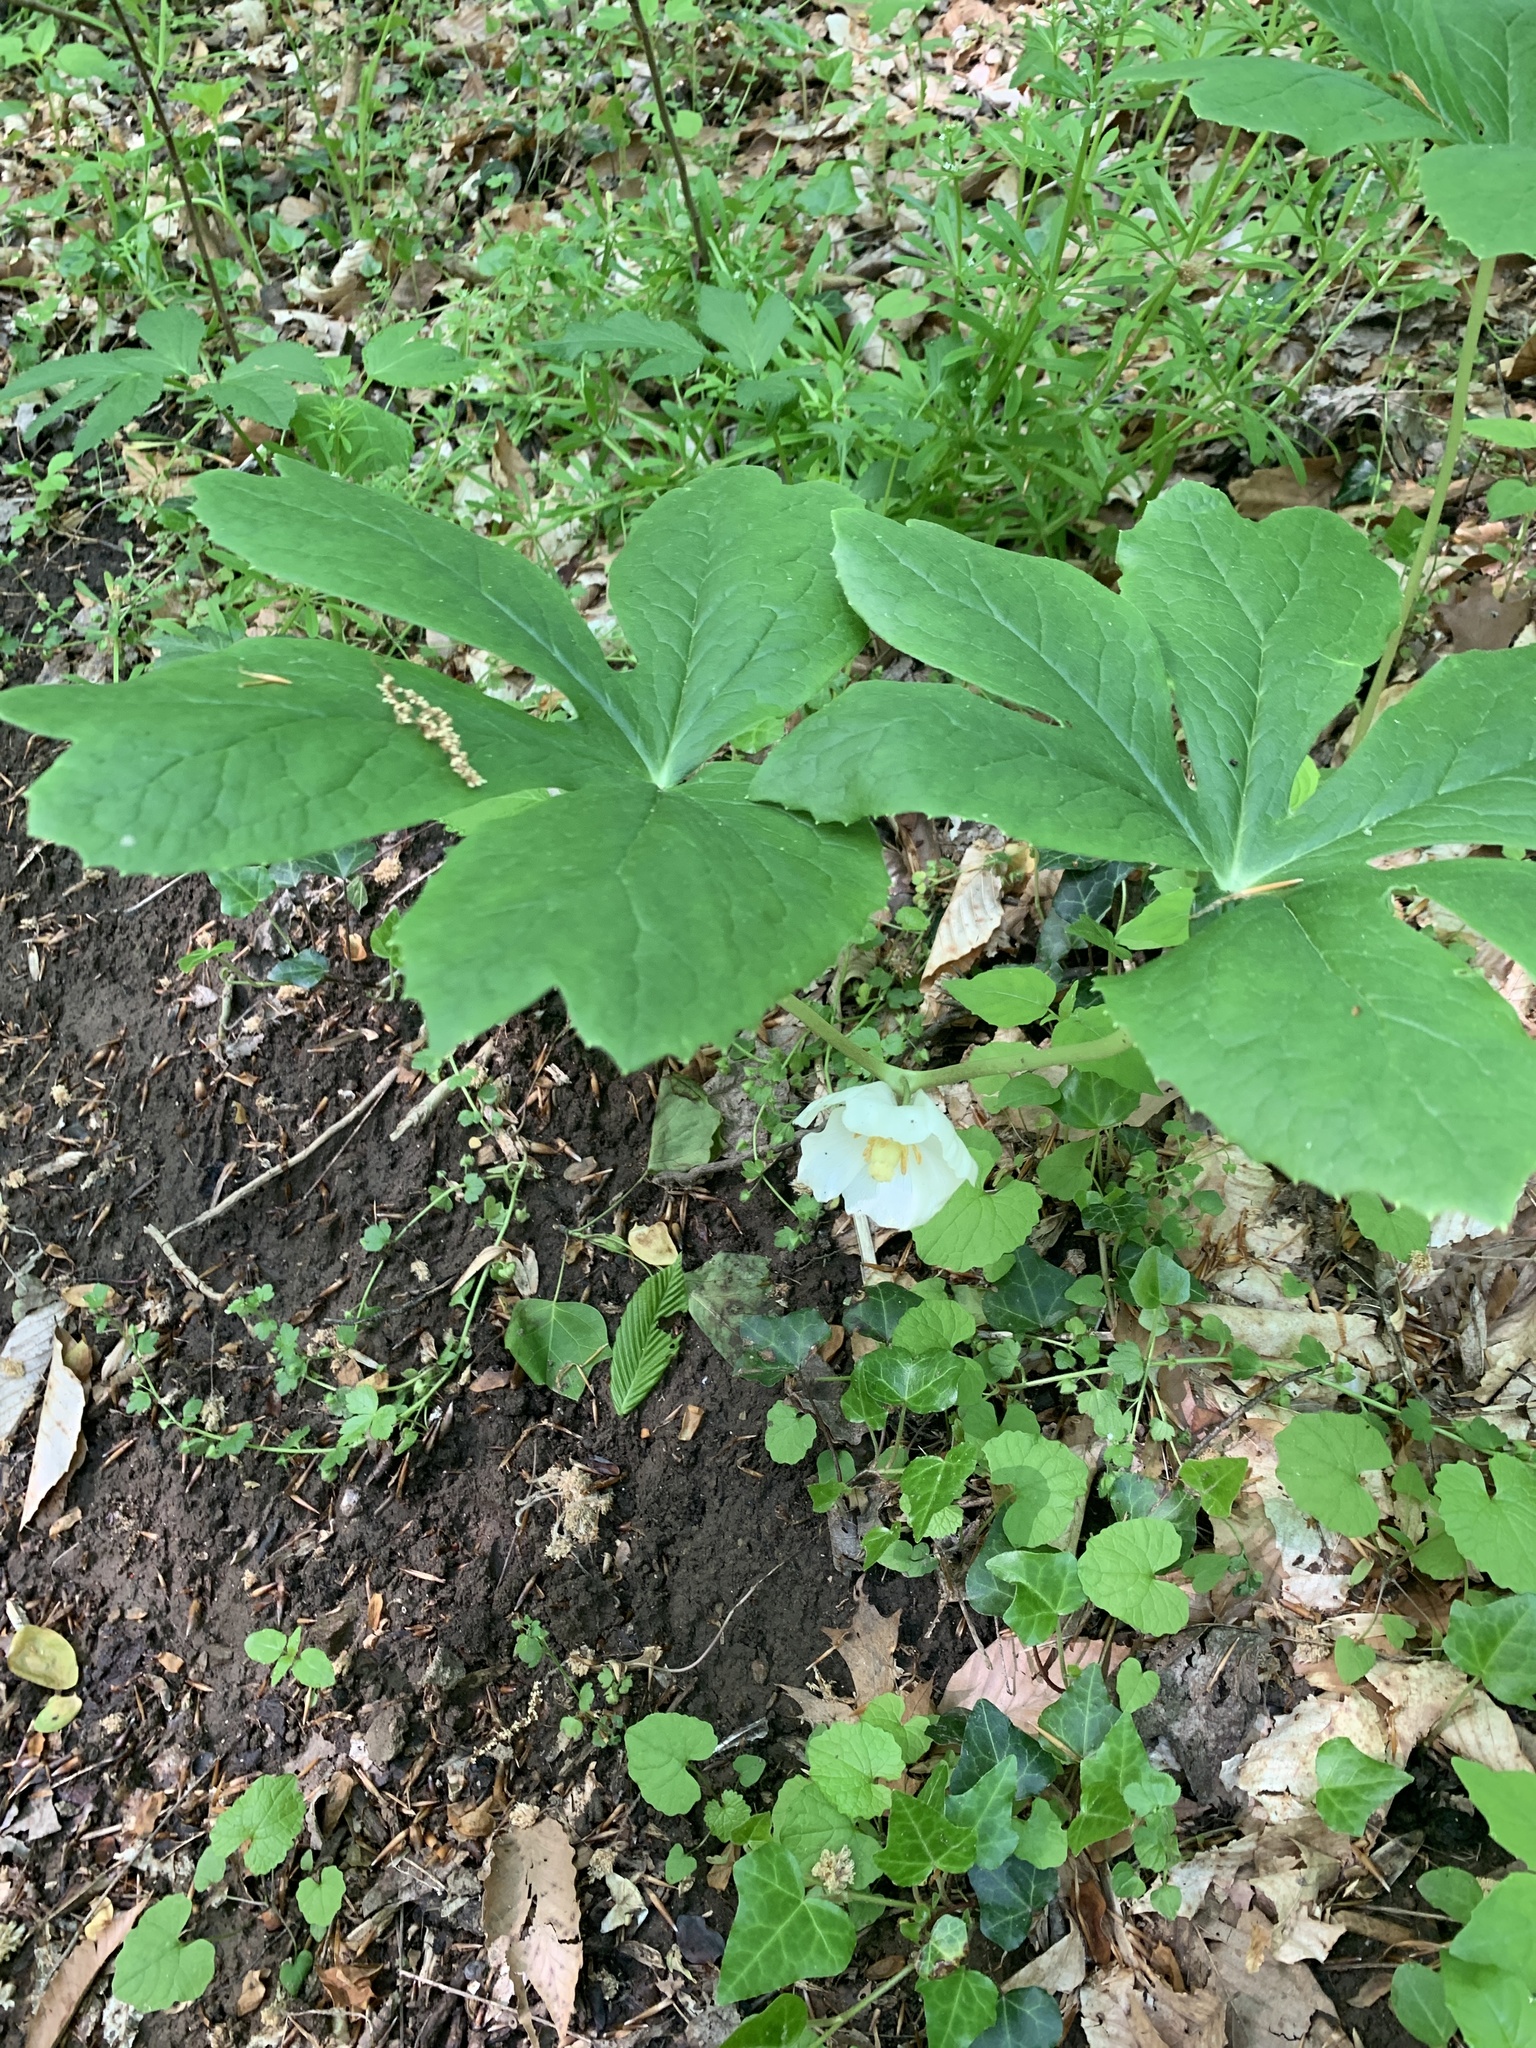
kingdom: Plantae
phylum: Tracheophyta
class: Magnoliopsida
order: Ranunculales
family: Berberidaceae
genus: Podophyllum
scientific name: Podophyllum peltatum
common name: Wild mandrake
